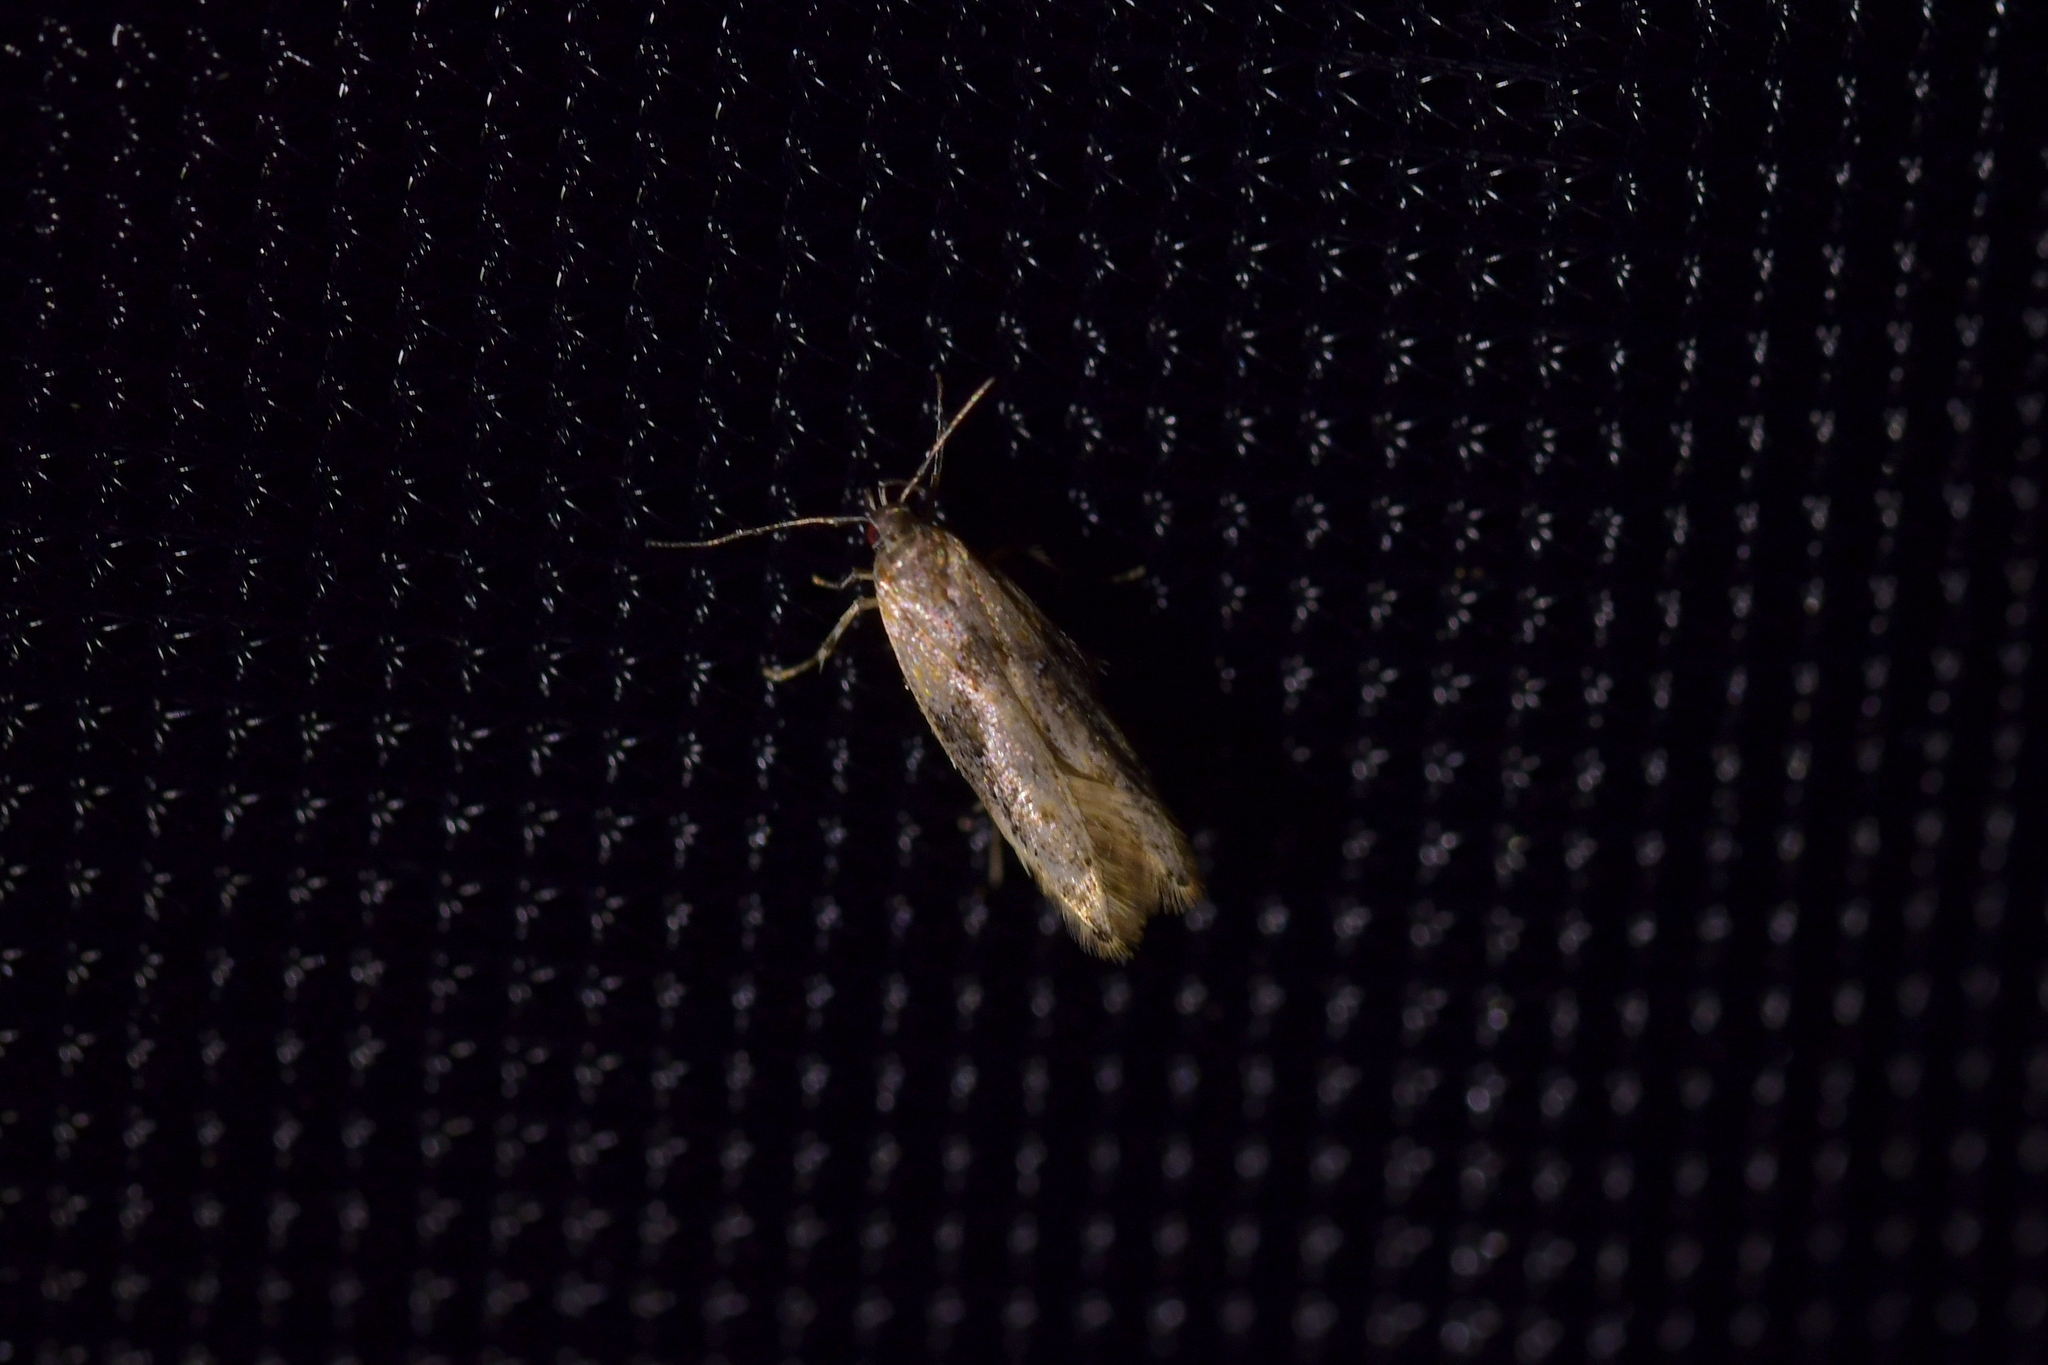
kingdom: Animalia
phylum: Arthropoda
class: Insecta
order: Lepidoptera
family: Elachistidae
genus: Circoxena
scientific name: Circoxena ditrocha
